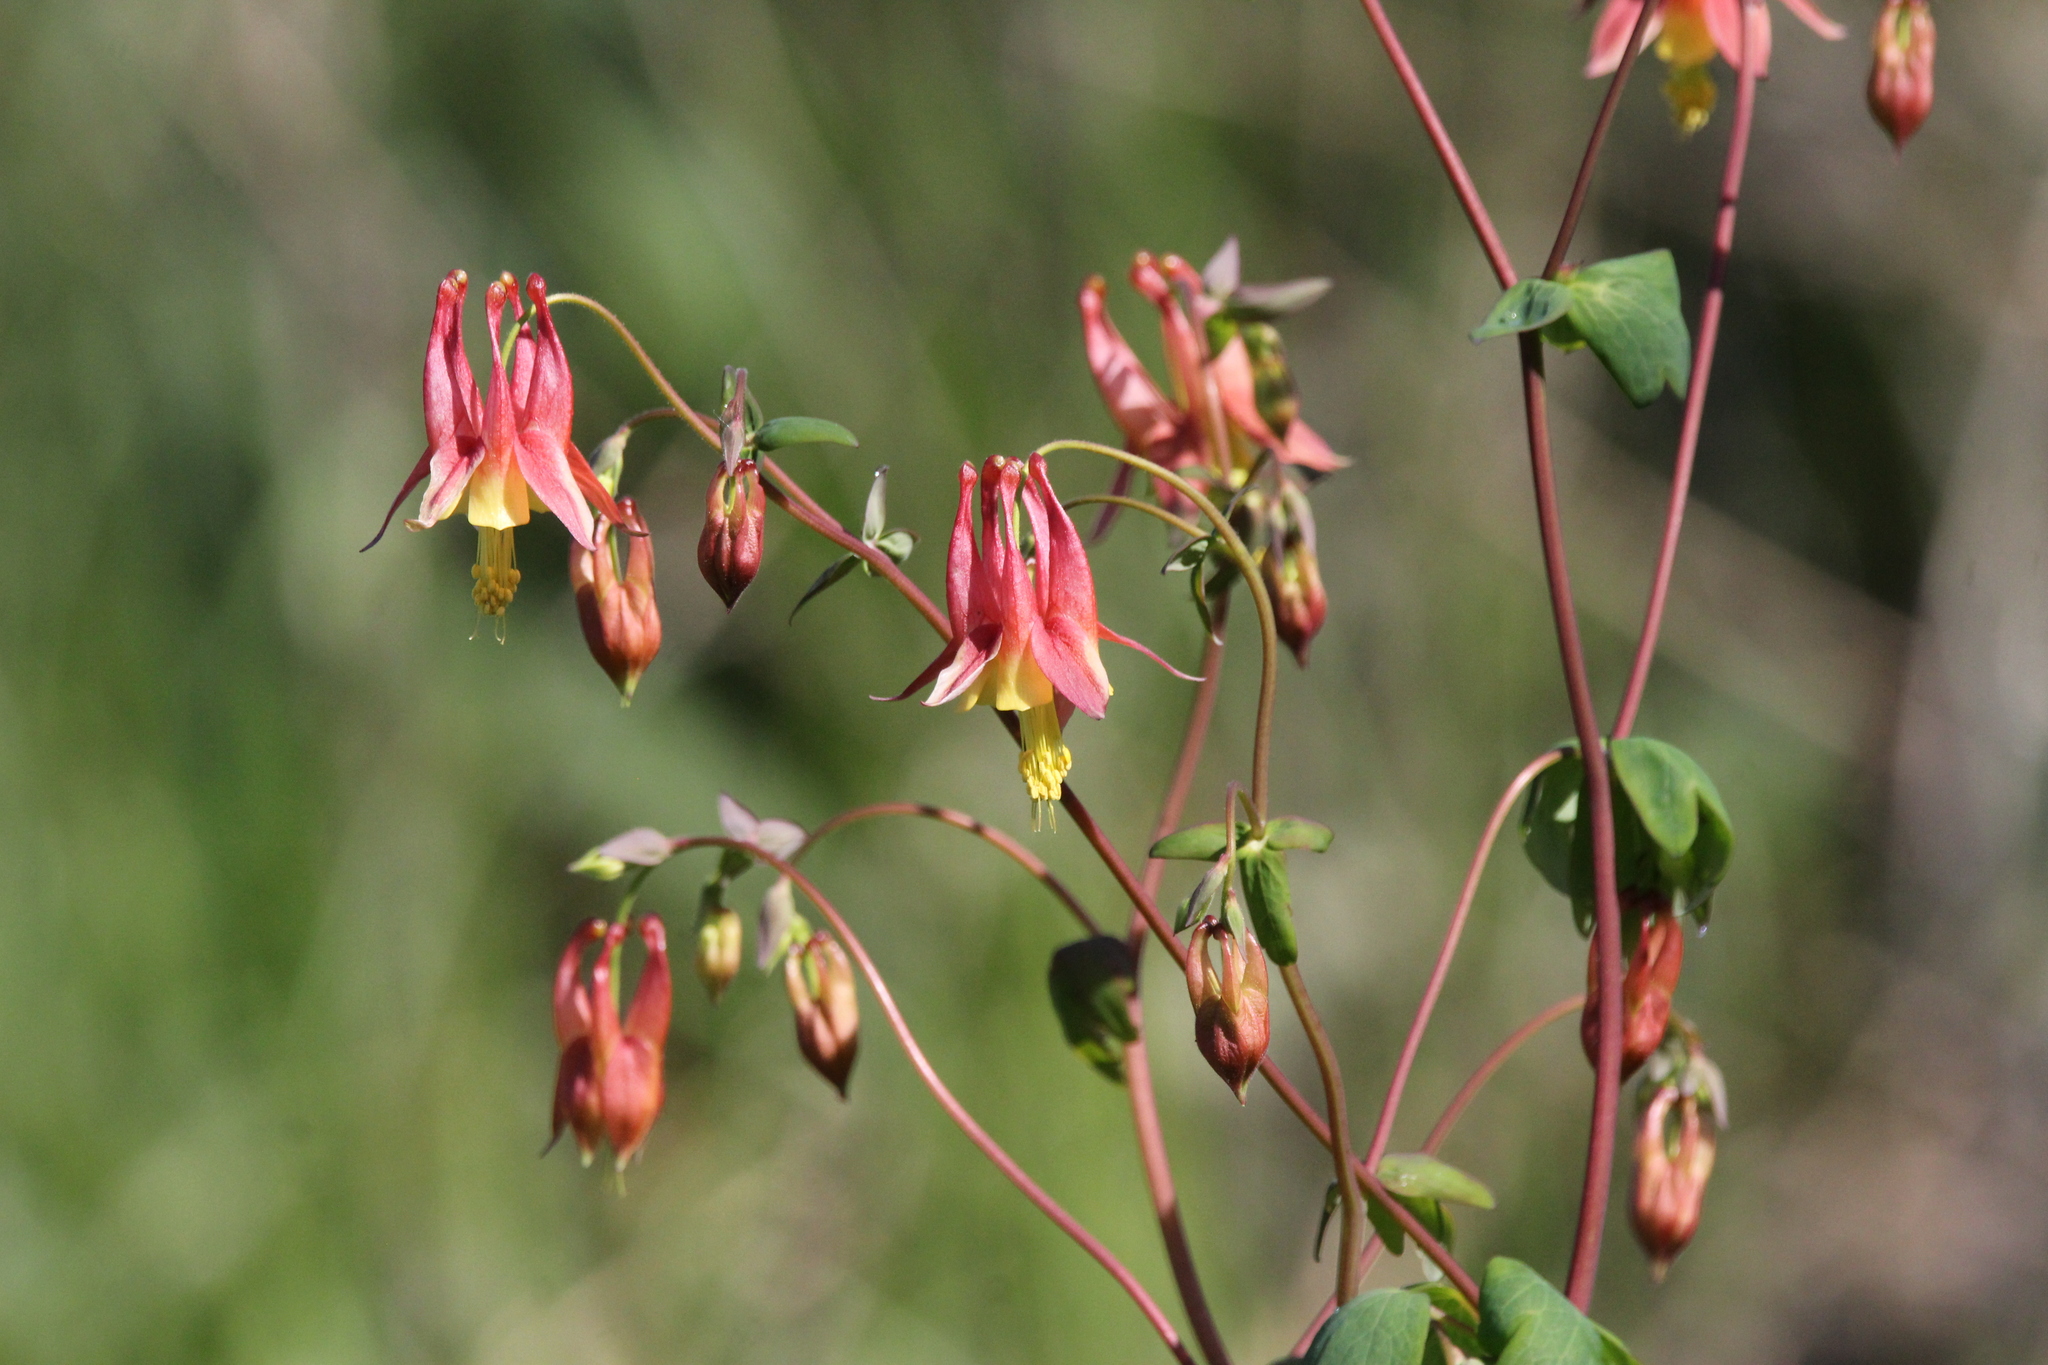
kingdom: Plantae
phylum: Tracheophyta
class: Magnoliopsida
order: Ranunculales
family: Ranunculaceae
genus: Aquilegia
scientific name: Aquilegia canadensis
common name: American columbine
